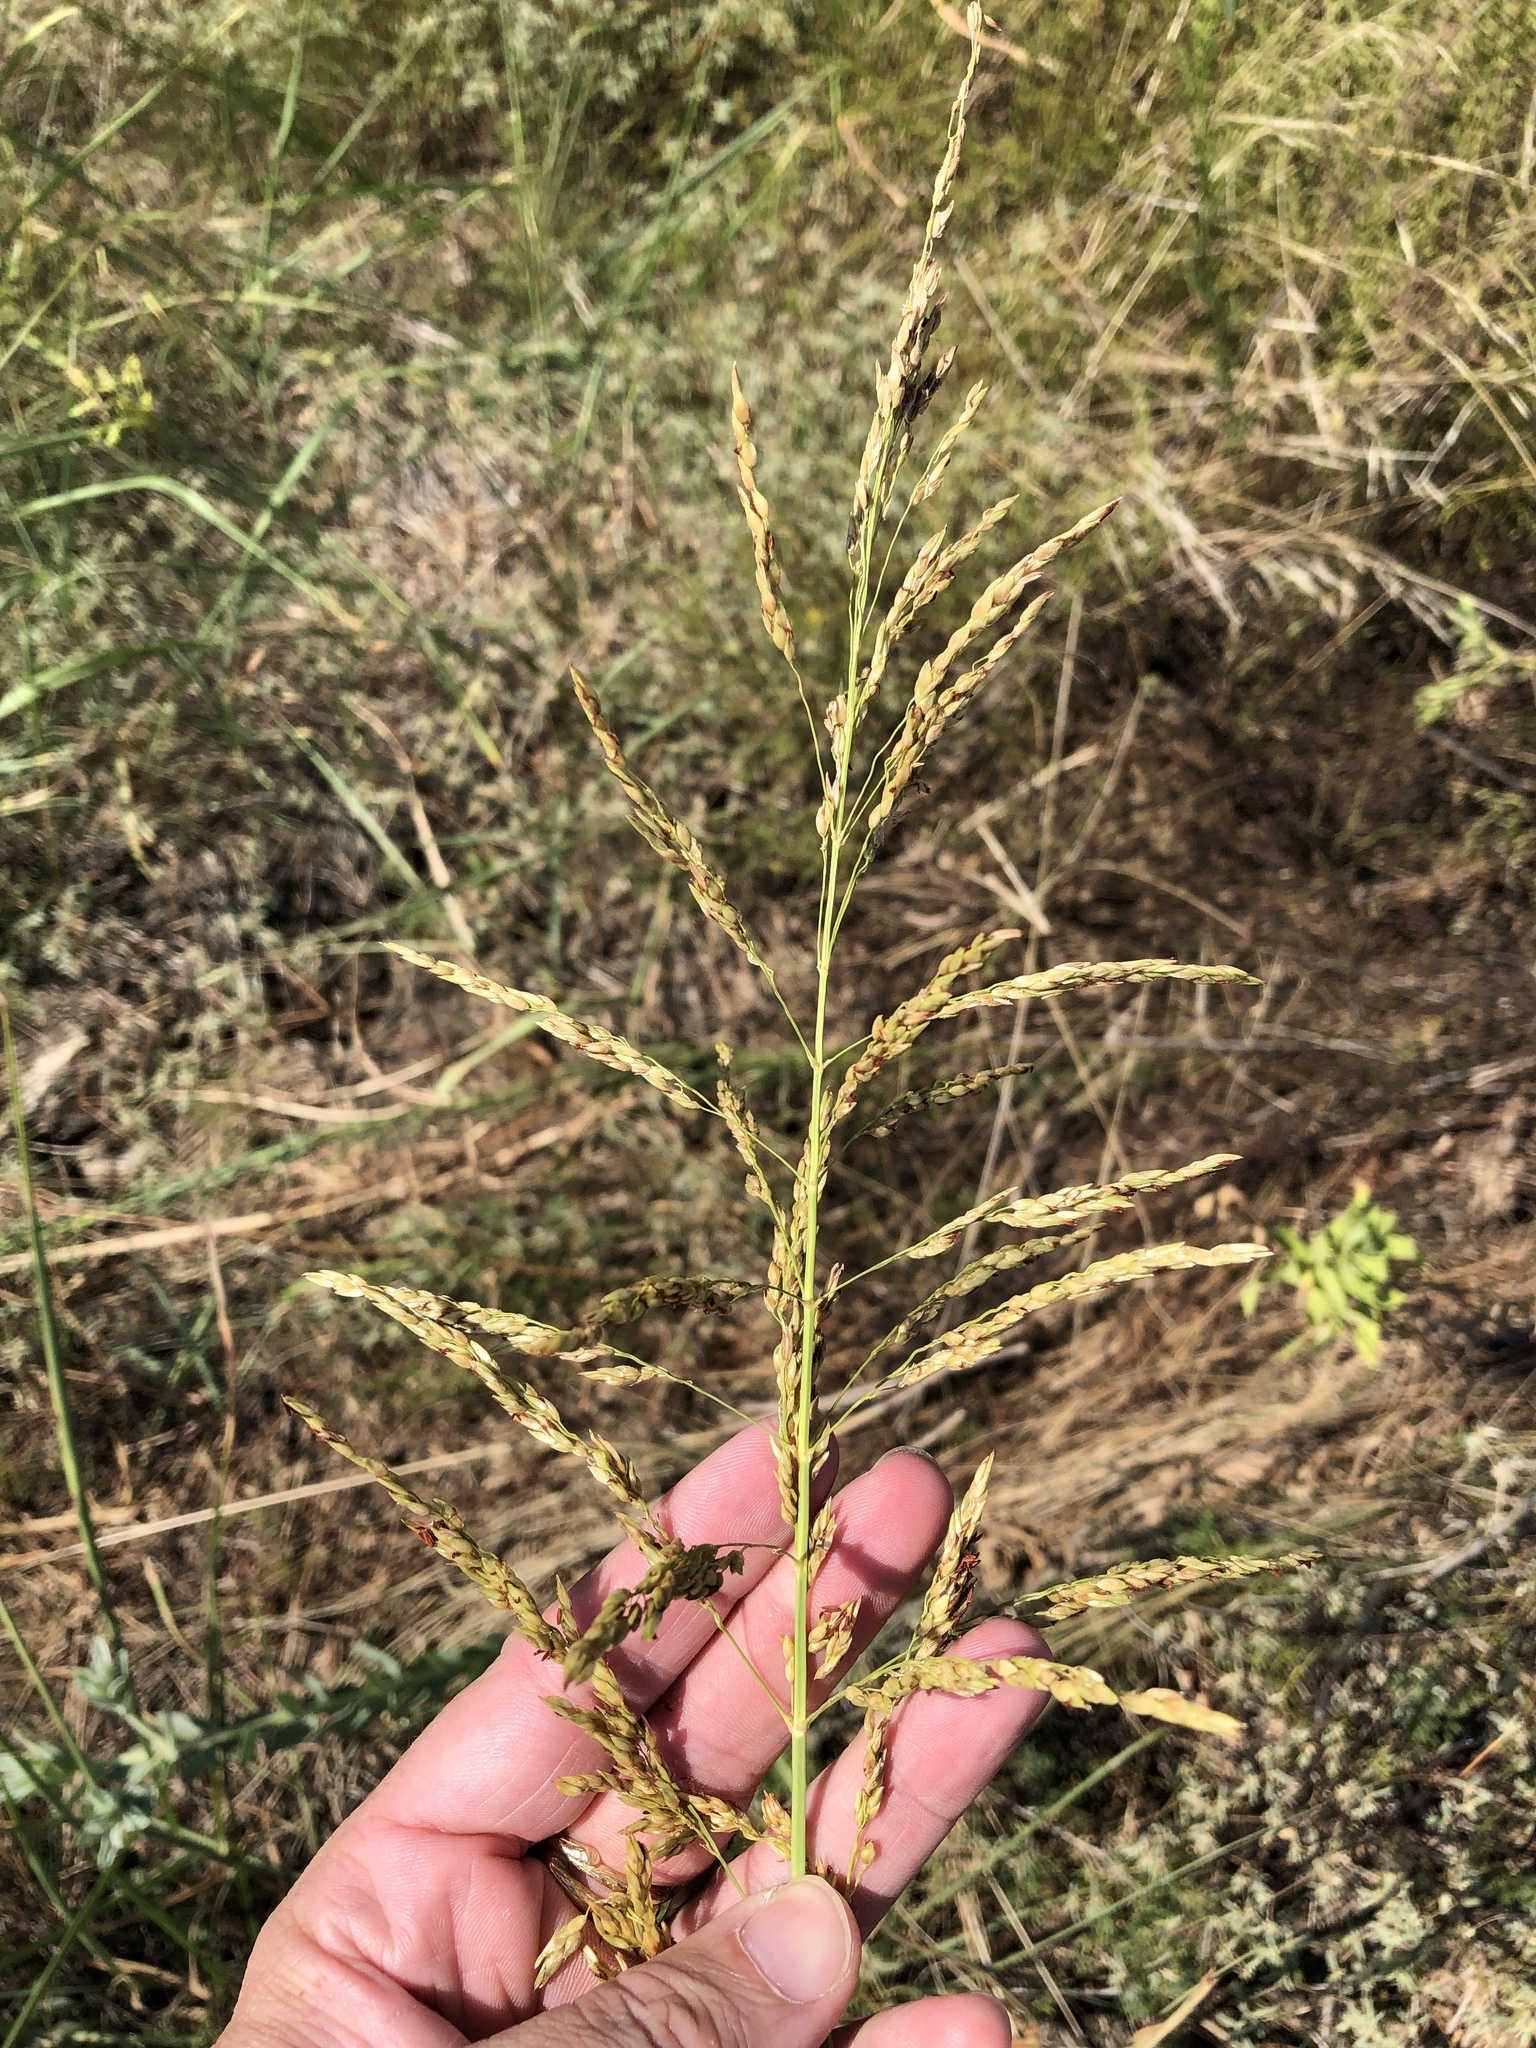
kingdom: Plantae
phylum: Tracheophyta
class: Liliopsida
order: Poales
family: Poaceae
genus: Sorghum
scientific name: Sorghum halepense
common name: Johnson-grass
